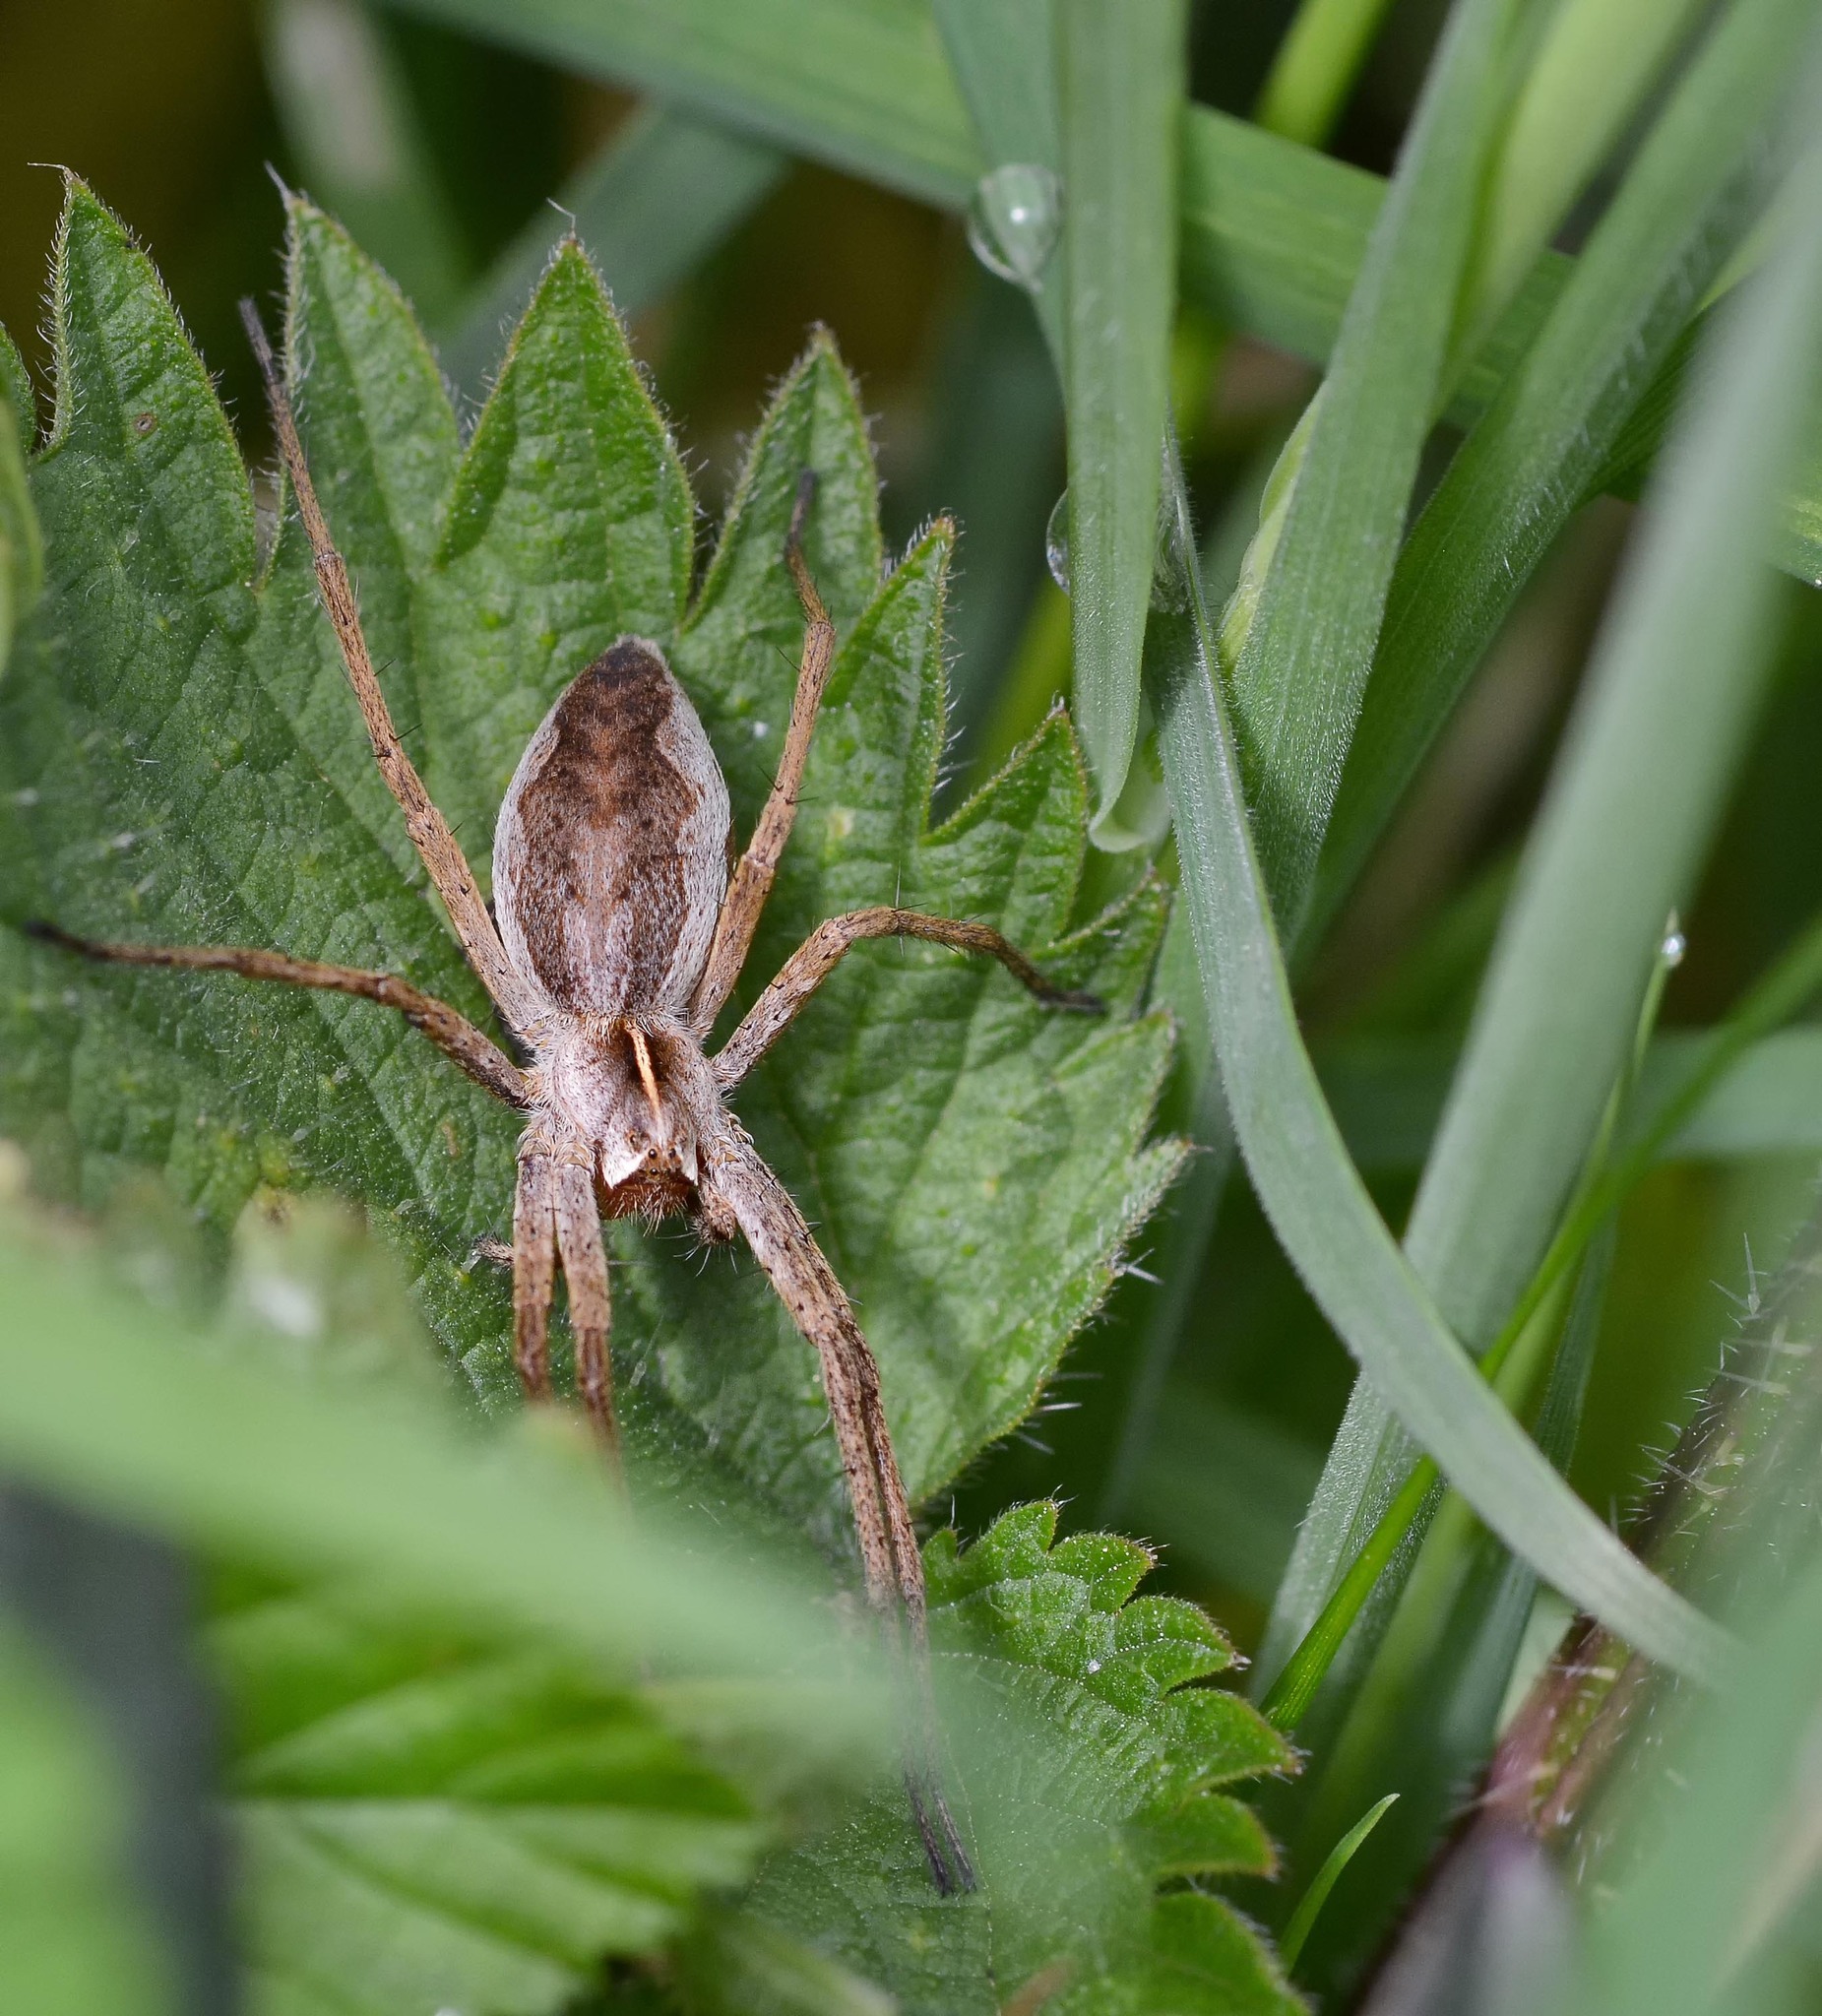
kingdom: Animalia
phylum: Arthropoda
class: Arachnida
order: Araneae
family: Pisauridae
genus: Pisaura
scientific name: Pisaura mirabilis
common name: Tent spider
